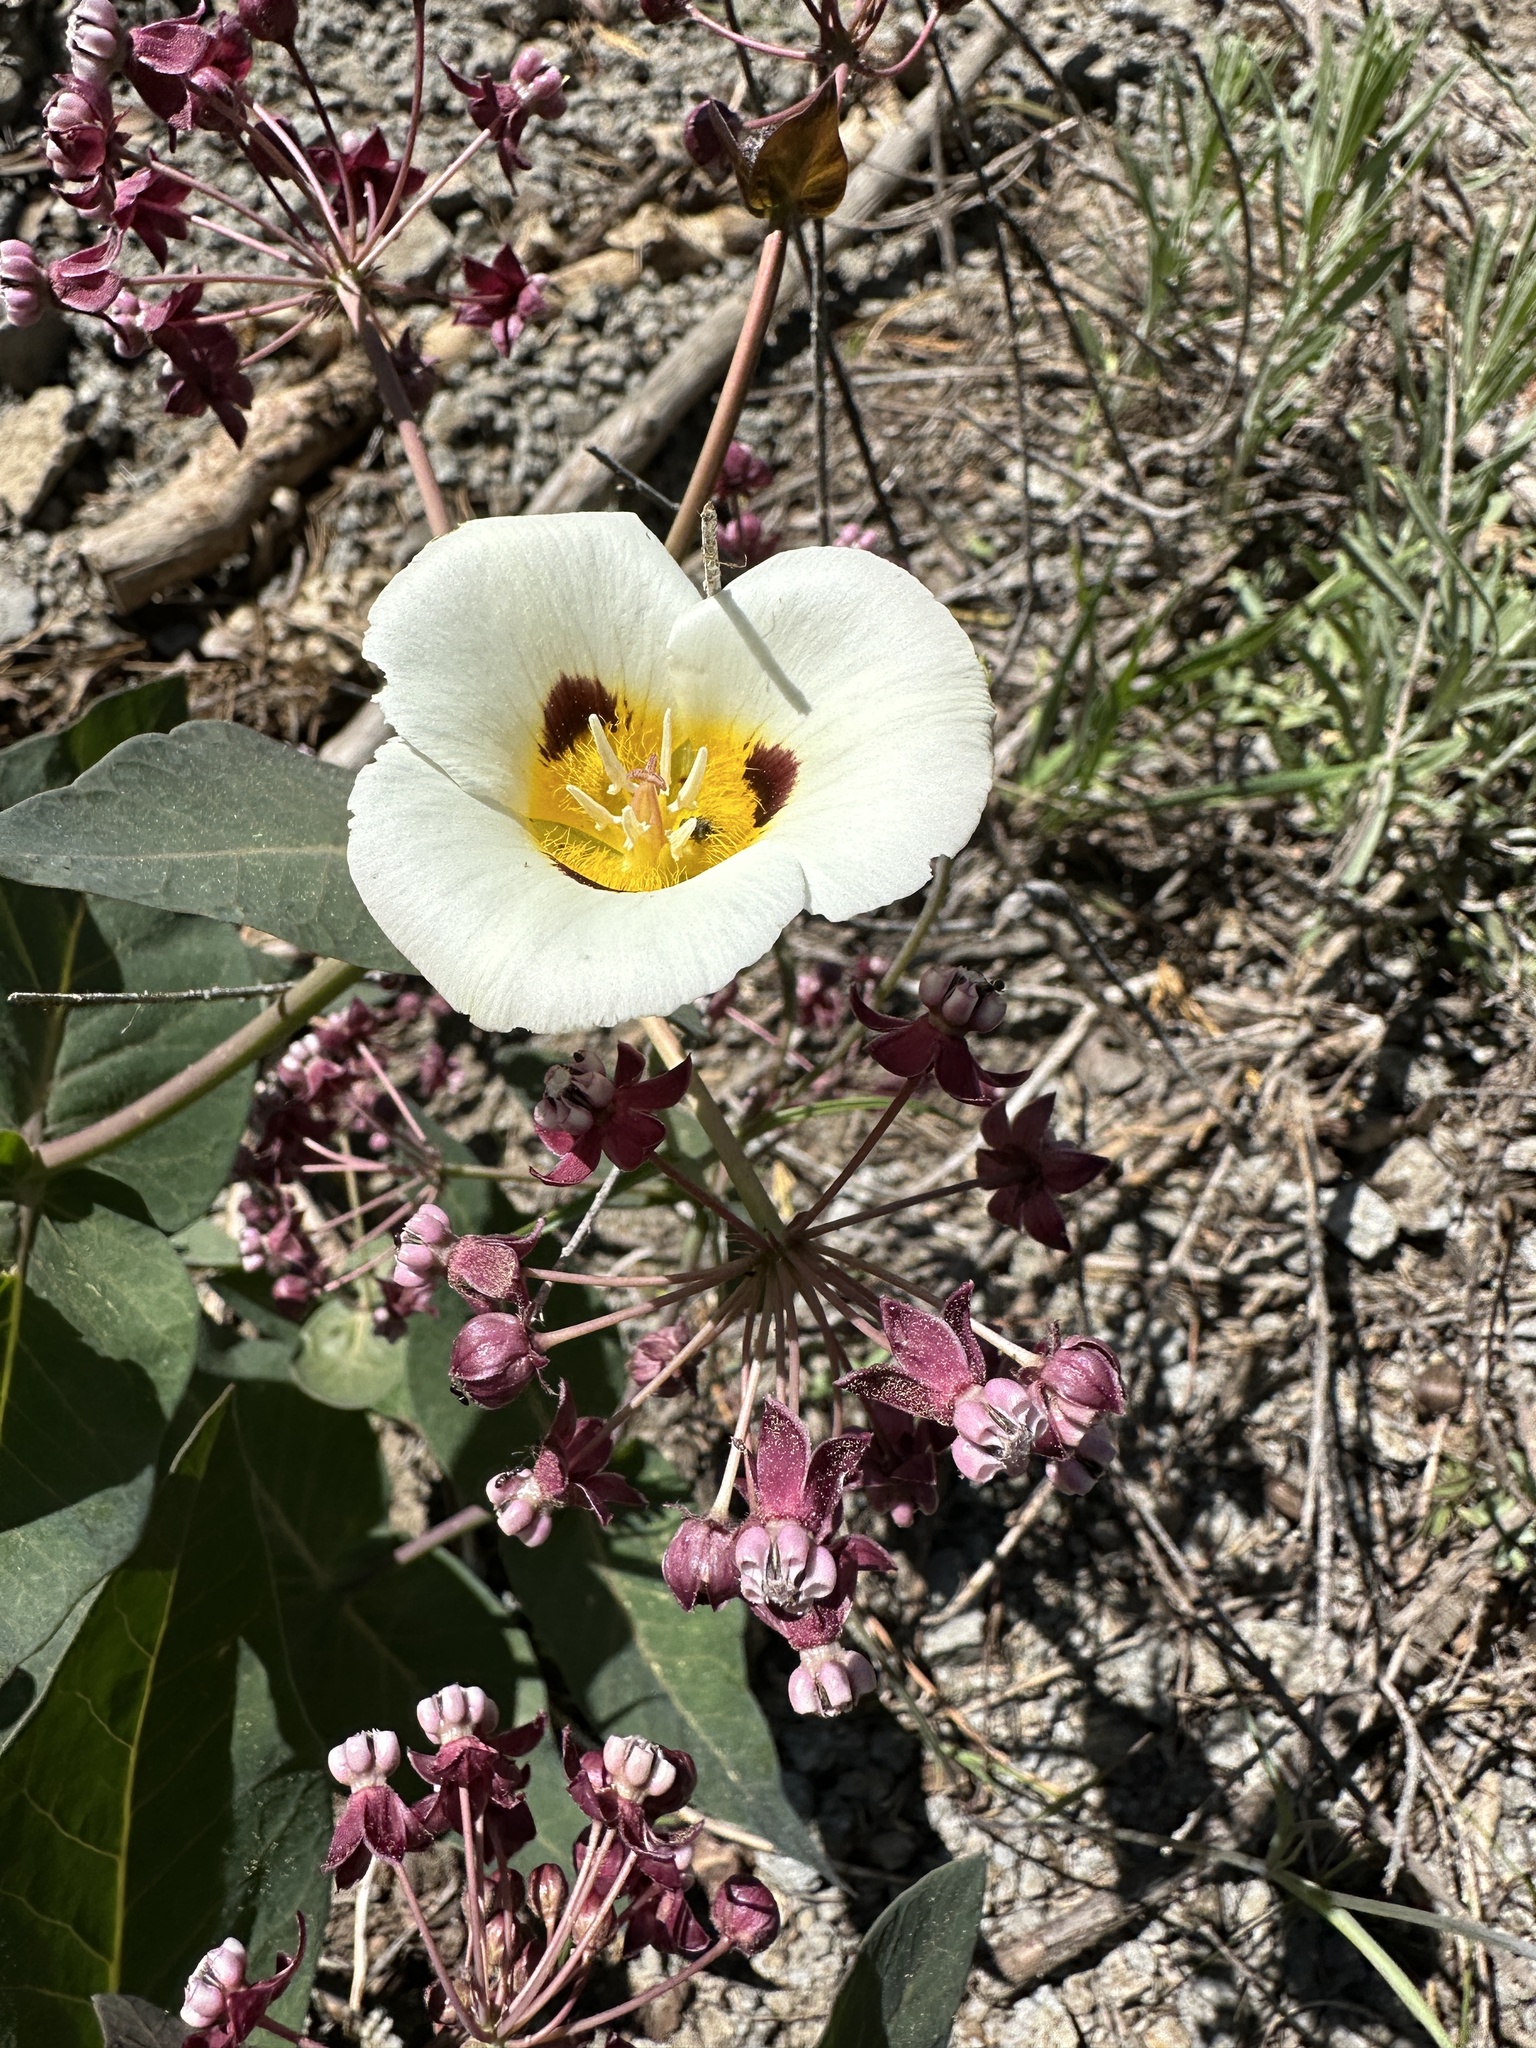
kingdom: Plantae
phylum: Tracheophyta
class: Liliopsida
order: Liliales
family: Liliaceae
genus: Calochortus
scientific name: Calochortus leichtlinii
